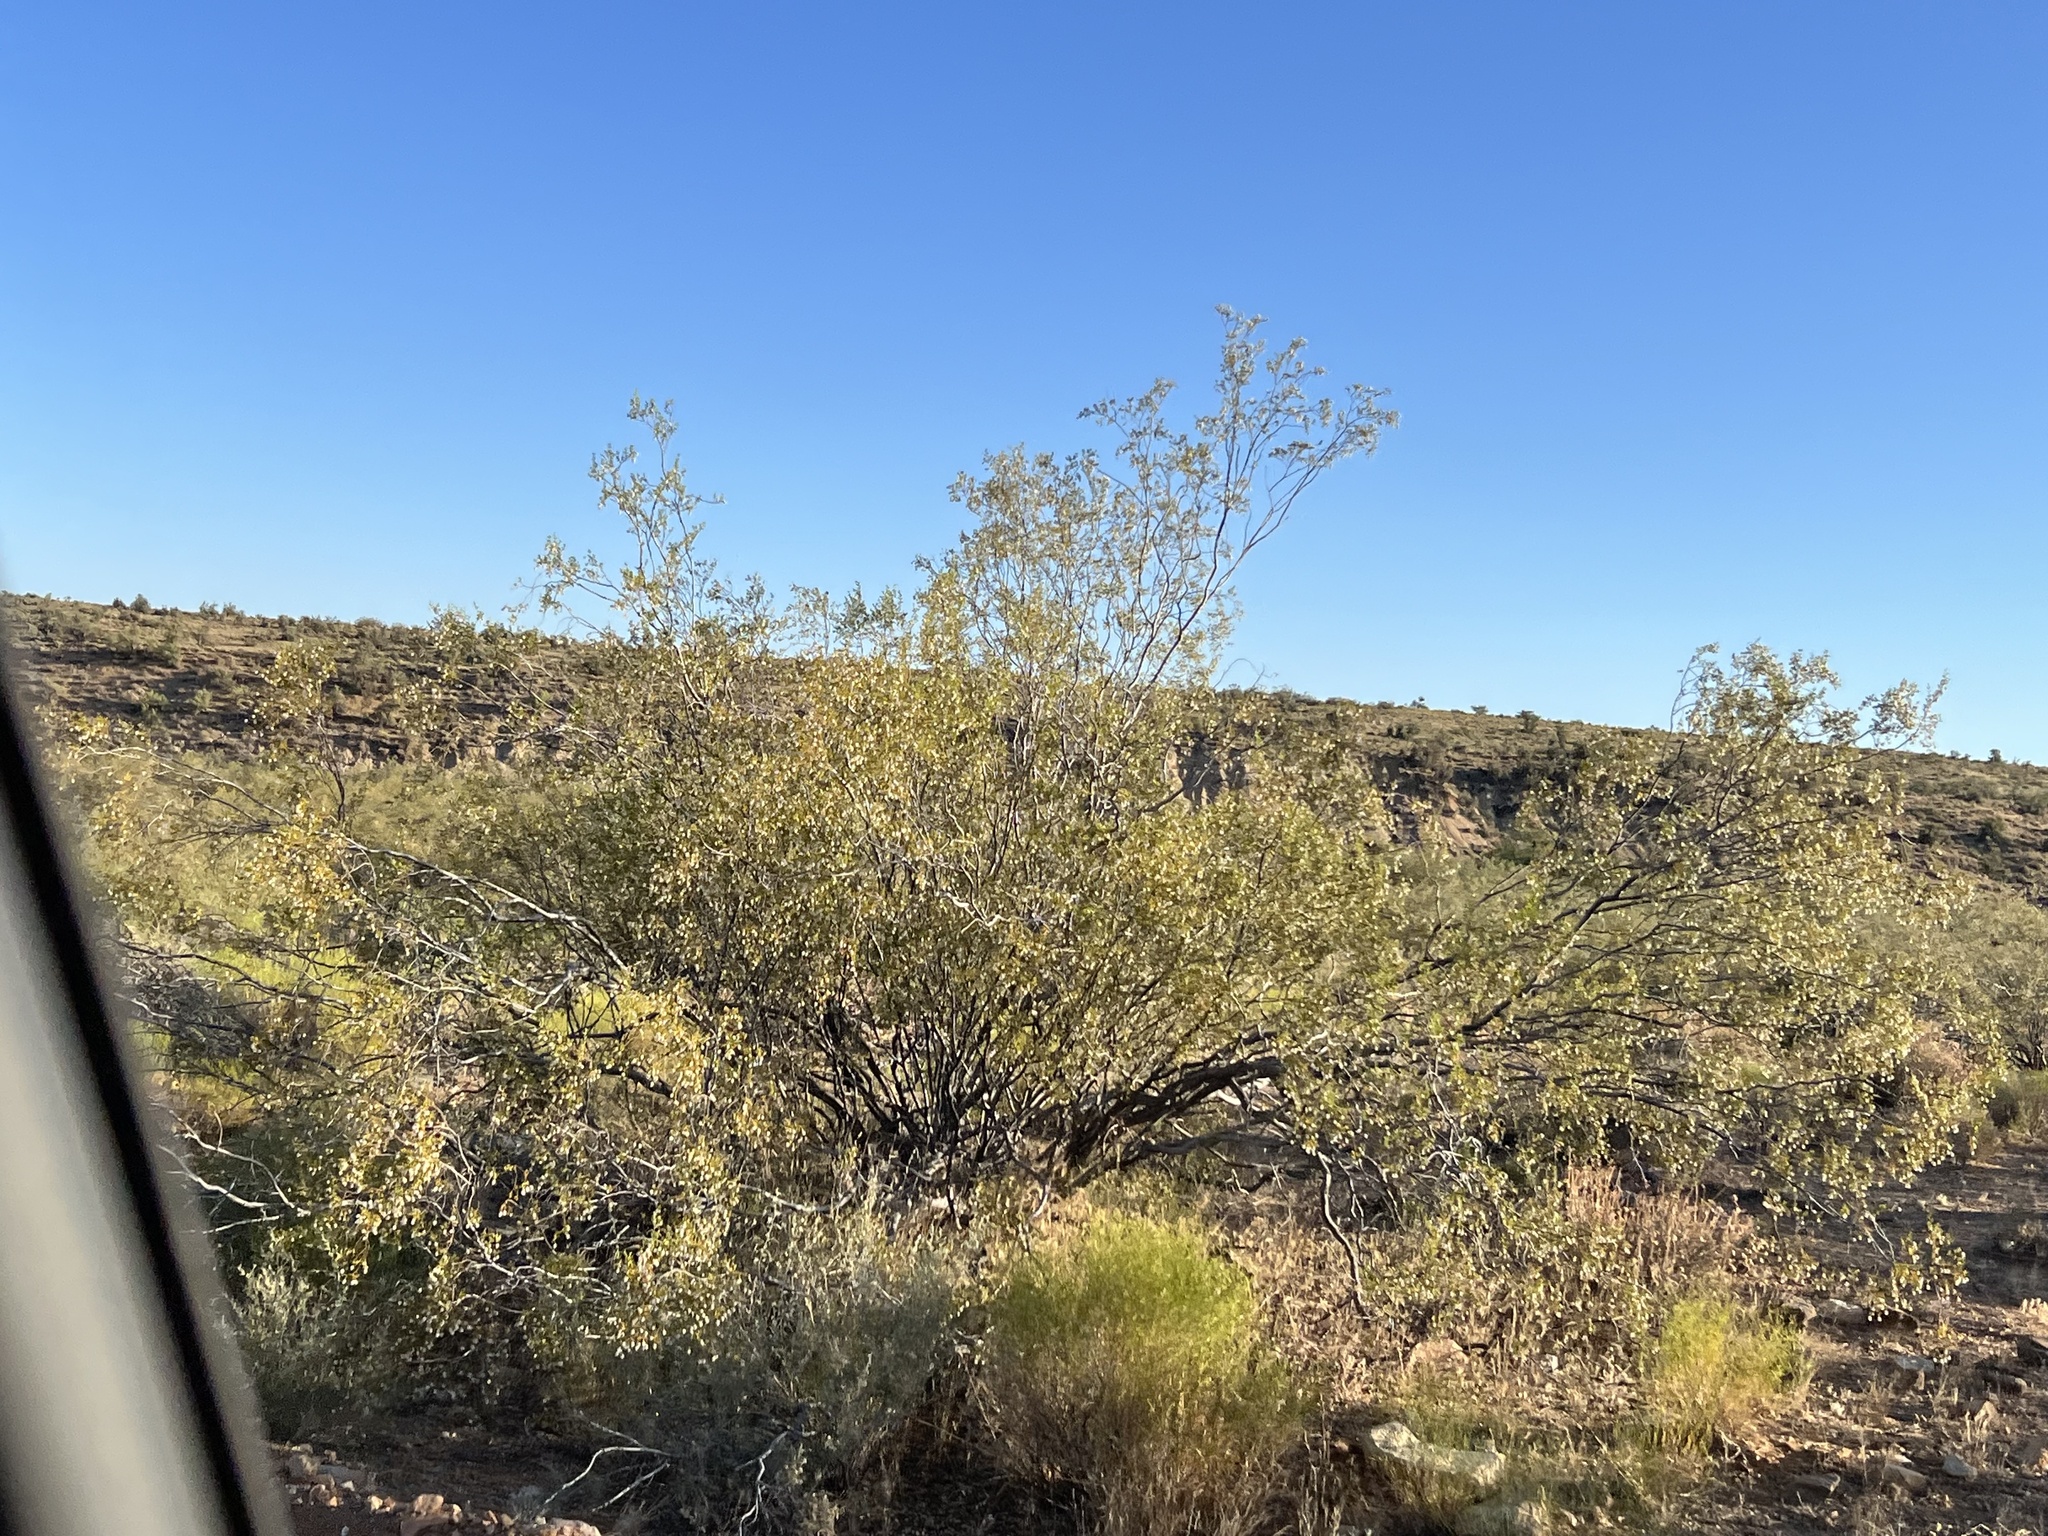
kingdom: Plantae
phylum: Tracheophyta
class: Magnoliopsida
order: Zygophyllales
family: Zygophyllaceae
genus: Larrea
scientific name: Larrea tridentata
